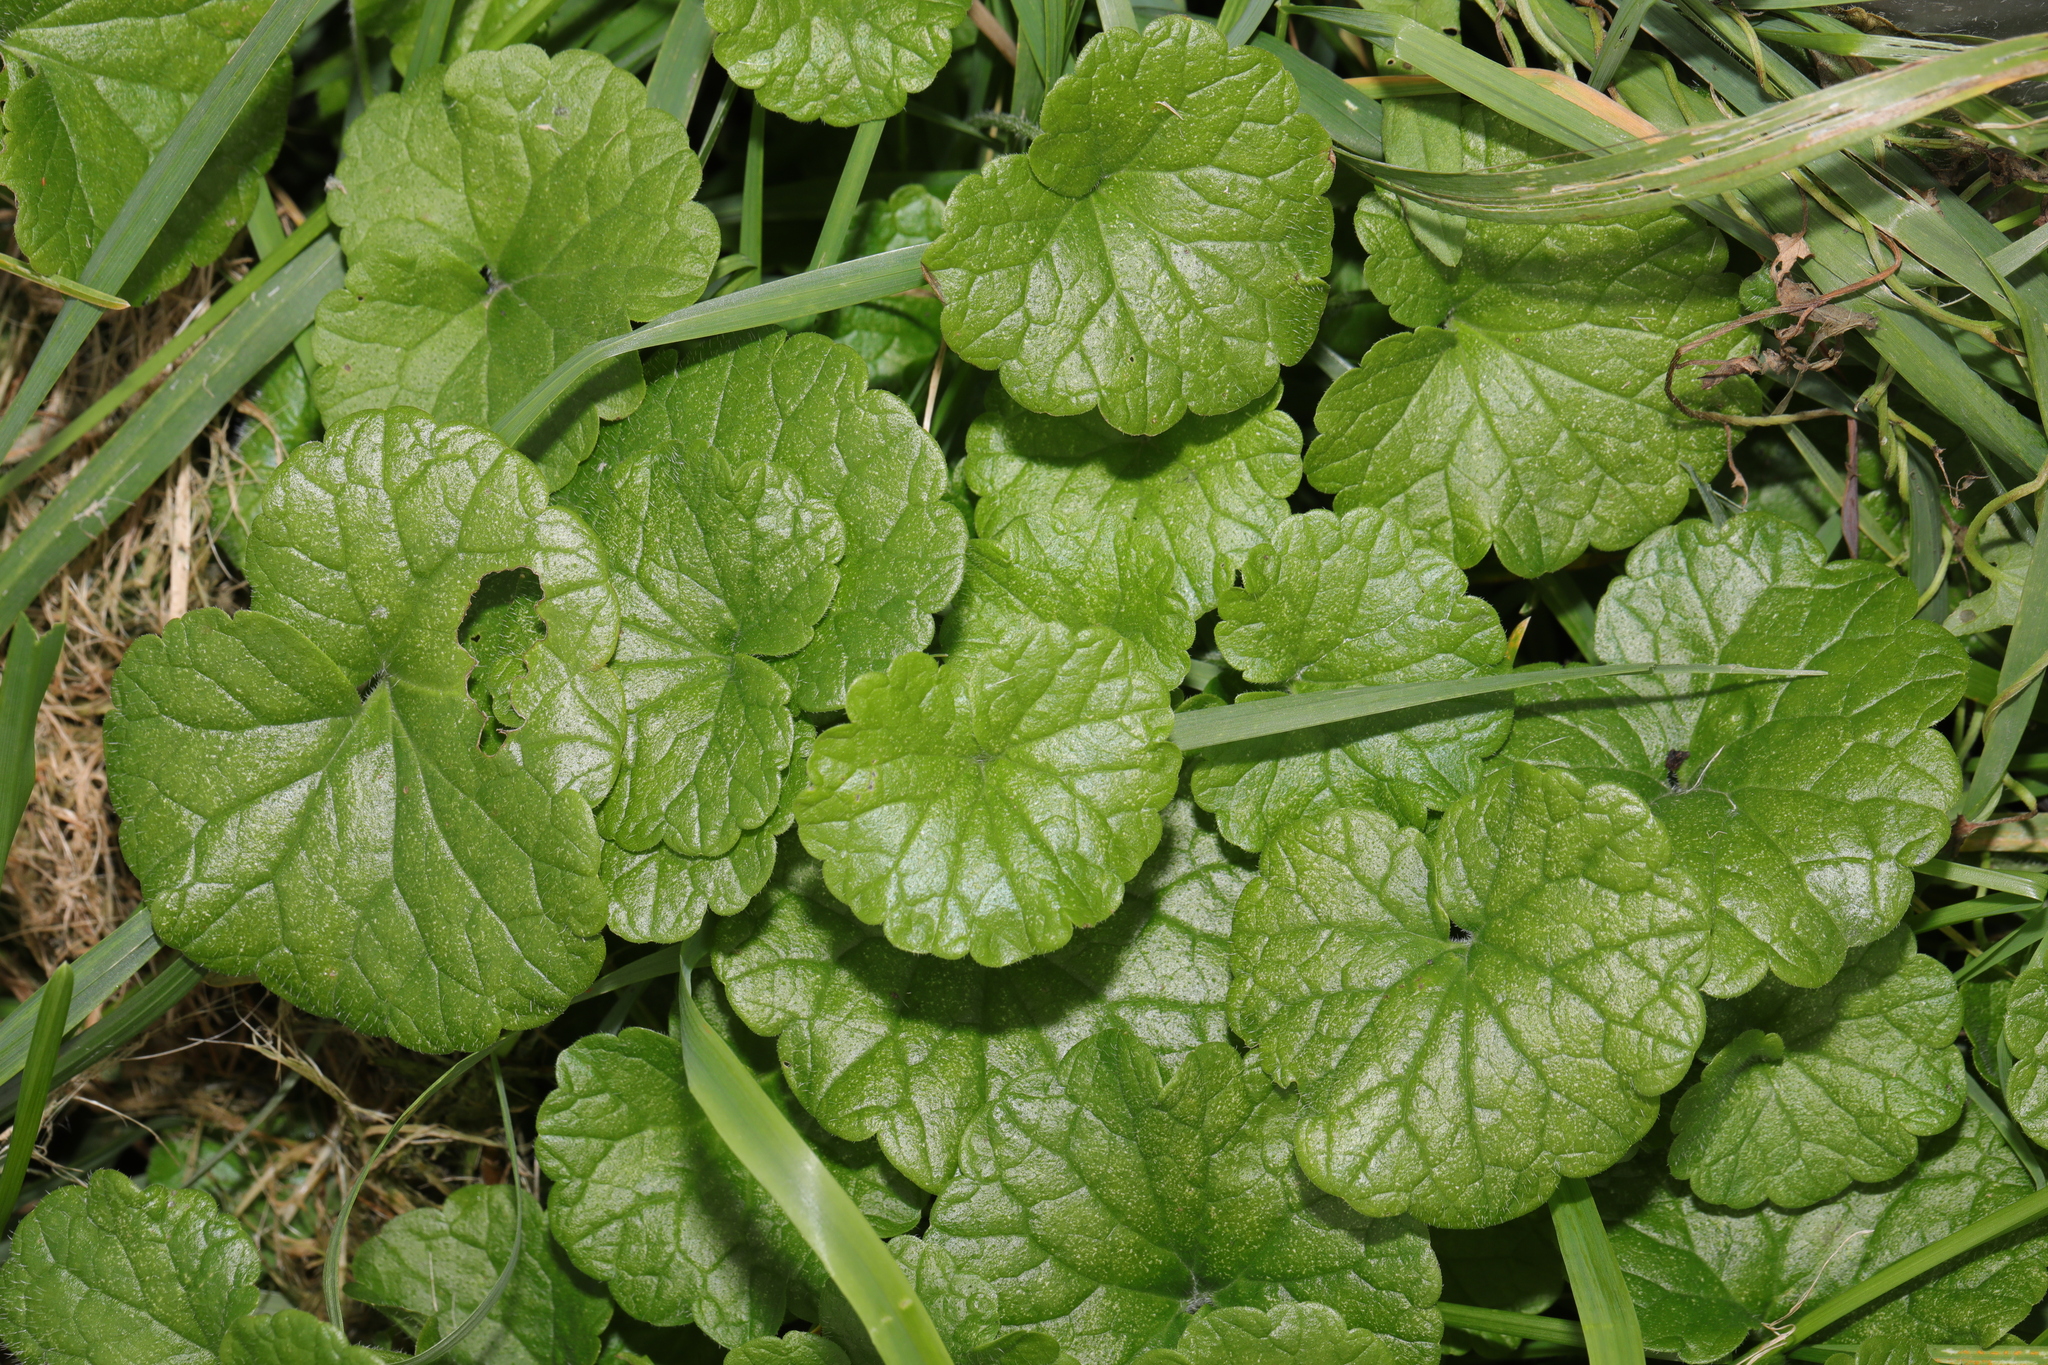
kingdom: Plantae
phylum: Tracheophyta
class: Magnoliopsida
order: Lamiales
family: Lamiaceae
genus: Glechoma
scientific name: Glechoma hederacea
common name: Ground ivy
